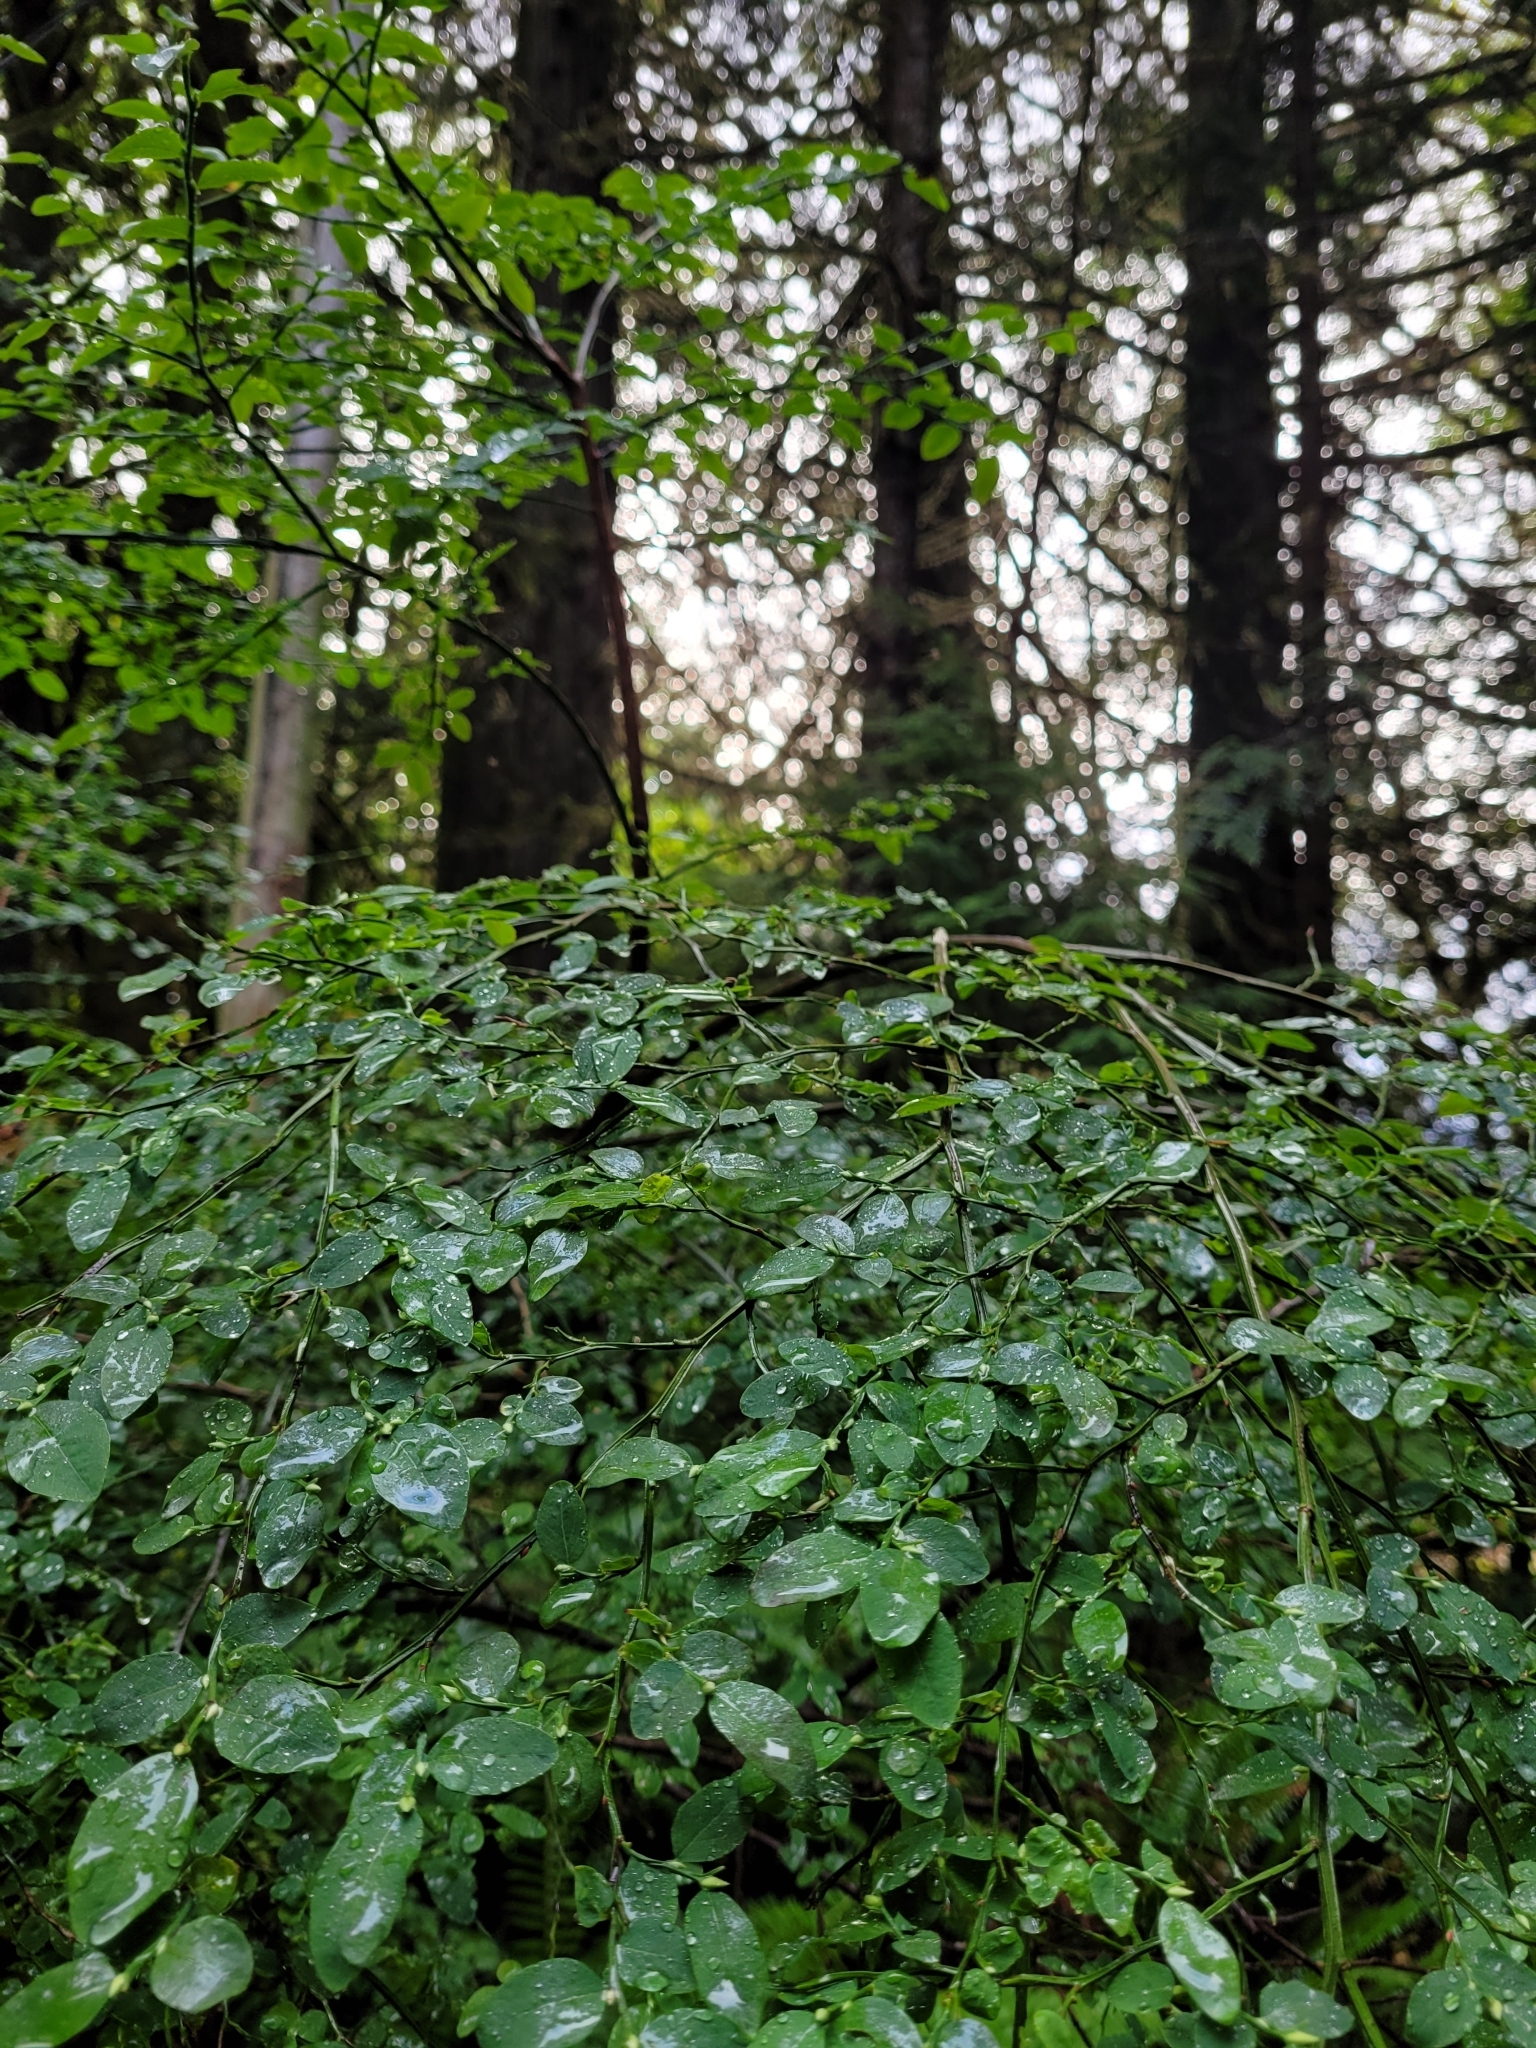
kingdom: Plantae
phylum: Tracheophyta
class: Magnoliopsida
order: Ericales
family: Ericaceae
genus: Vaccinium
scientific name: Vaccinium parvifolium
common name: Red-huckleberry
